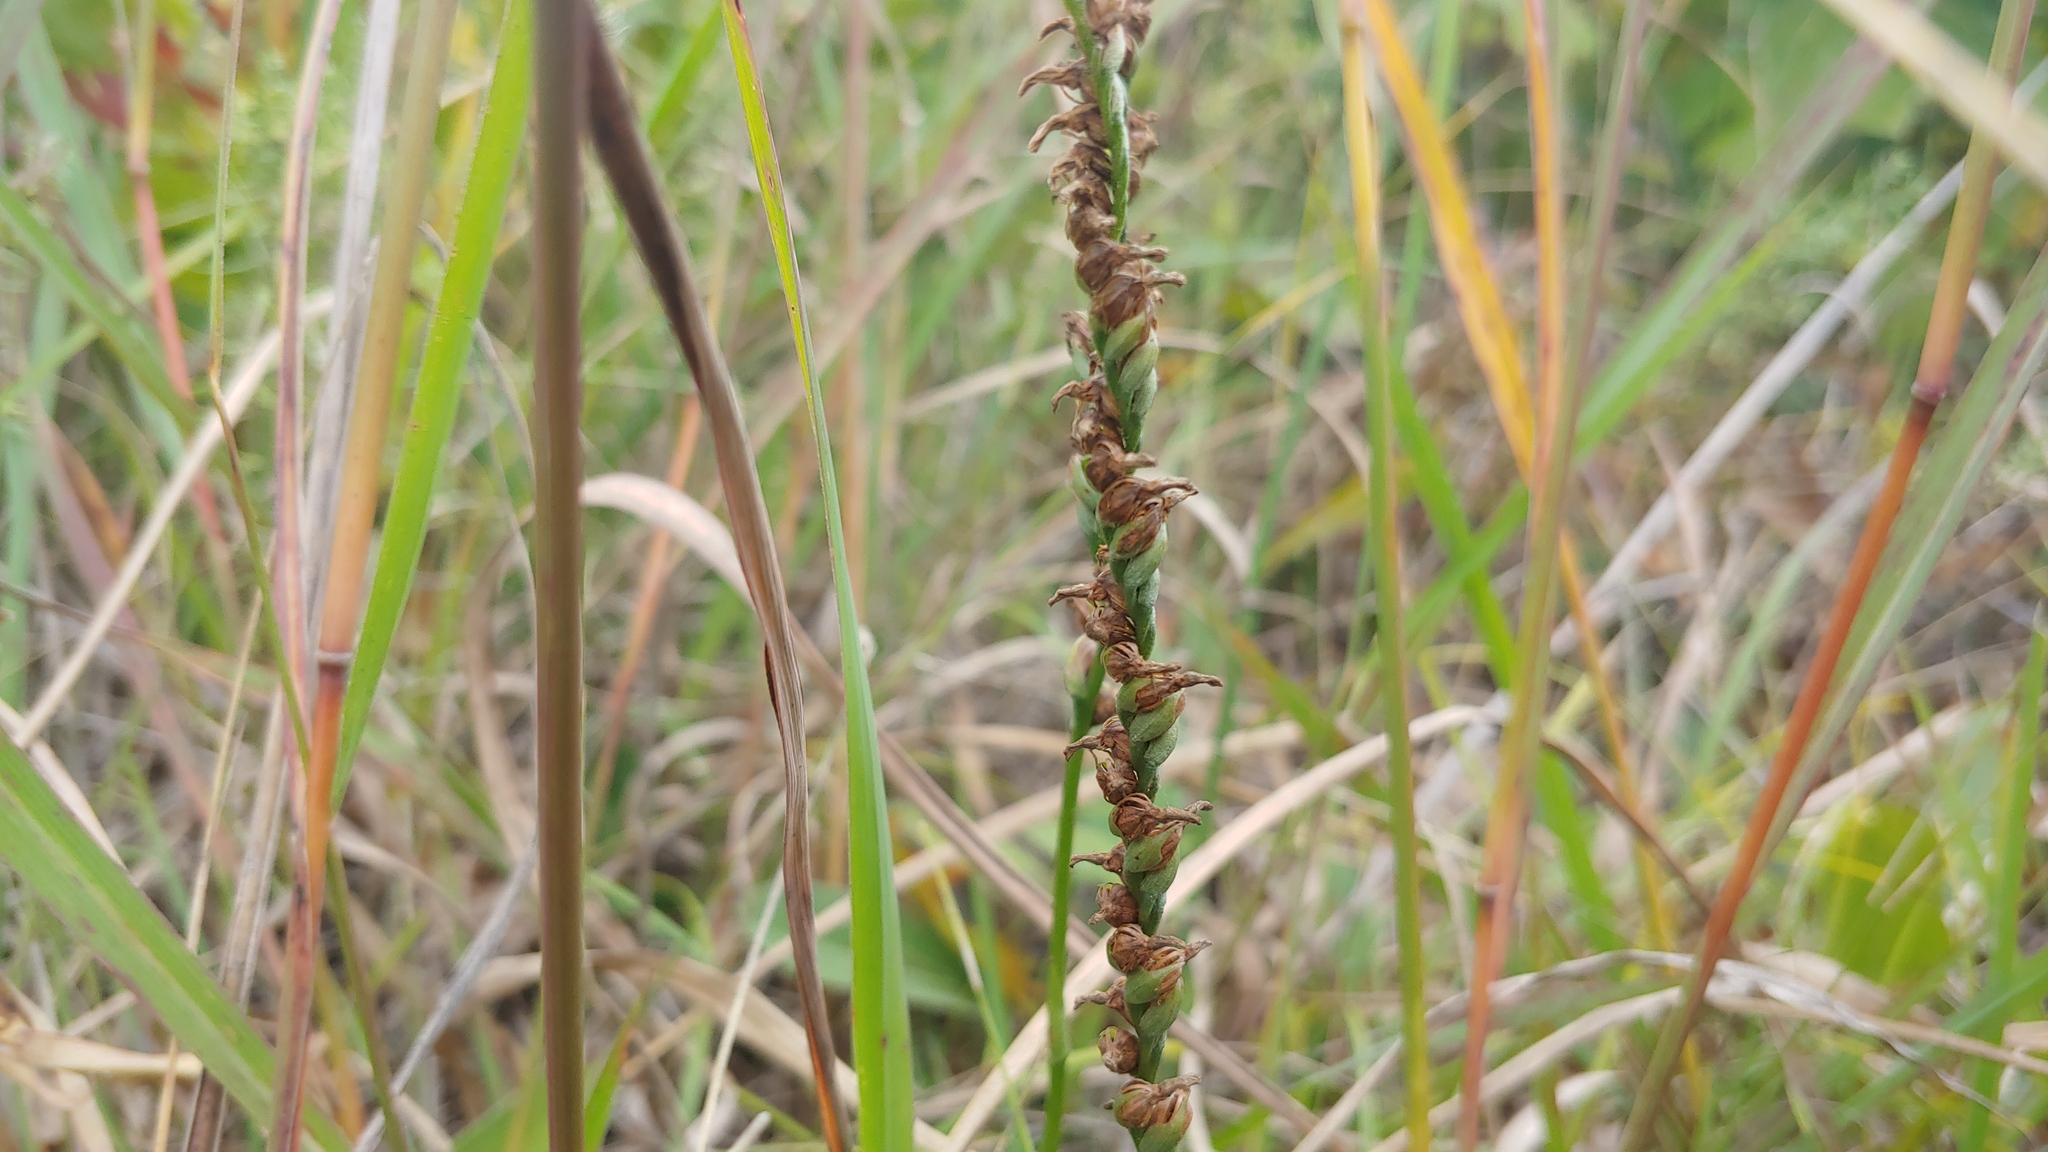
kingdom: Plantae
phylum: Tracheophyta
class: Liliopsida
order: Asparagales
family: Orchidaceae
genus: Spiranthes
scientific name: Spiranthes lacera
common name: Northern slender ladies'-tresses
